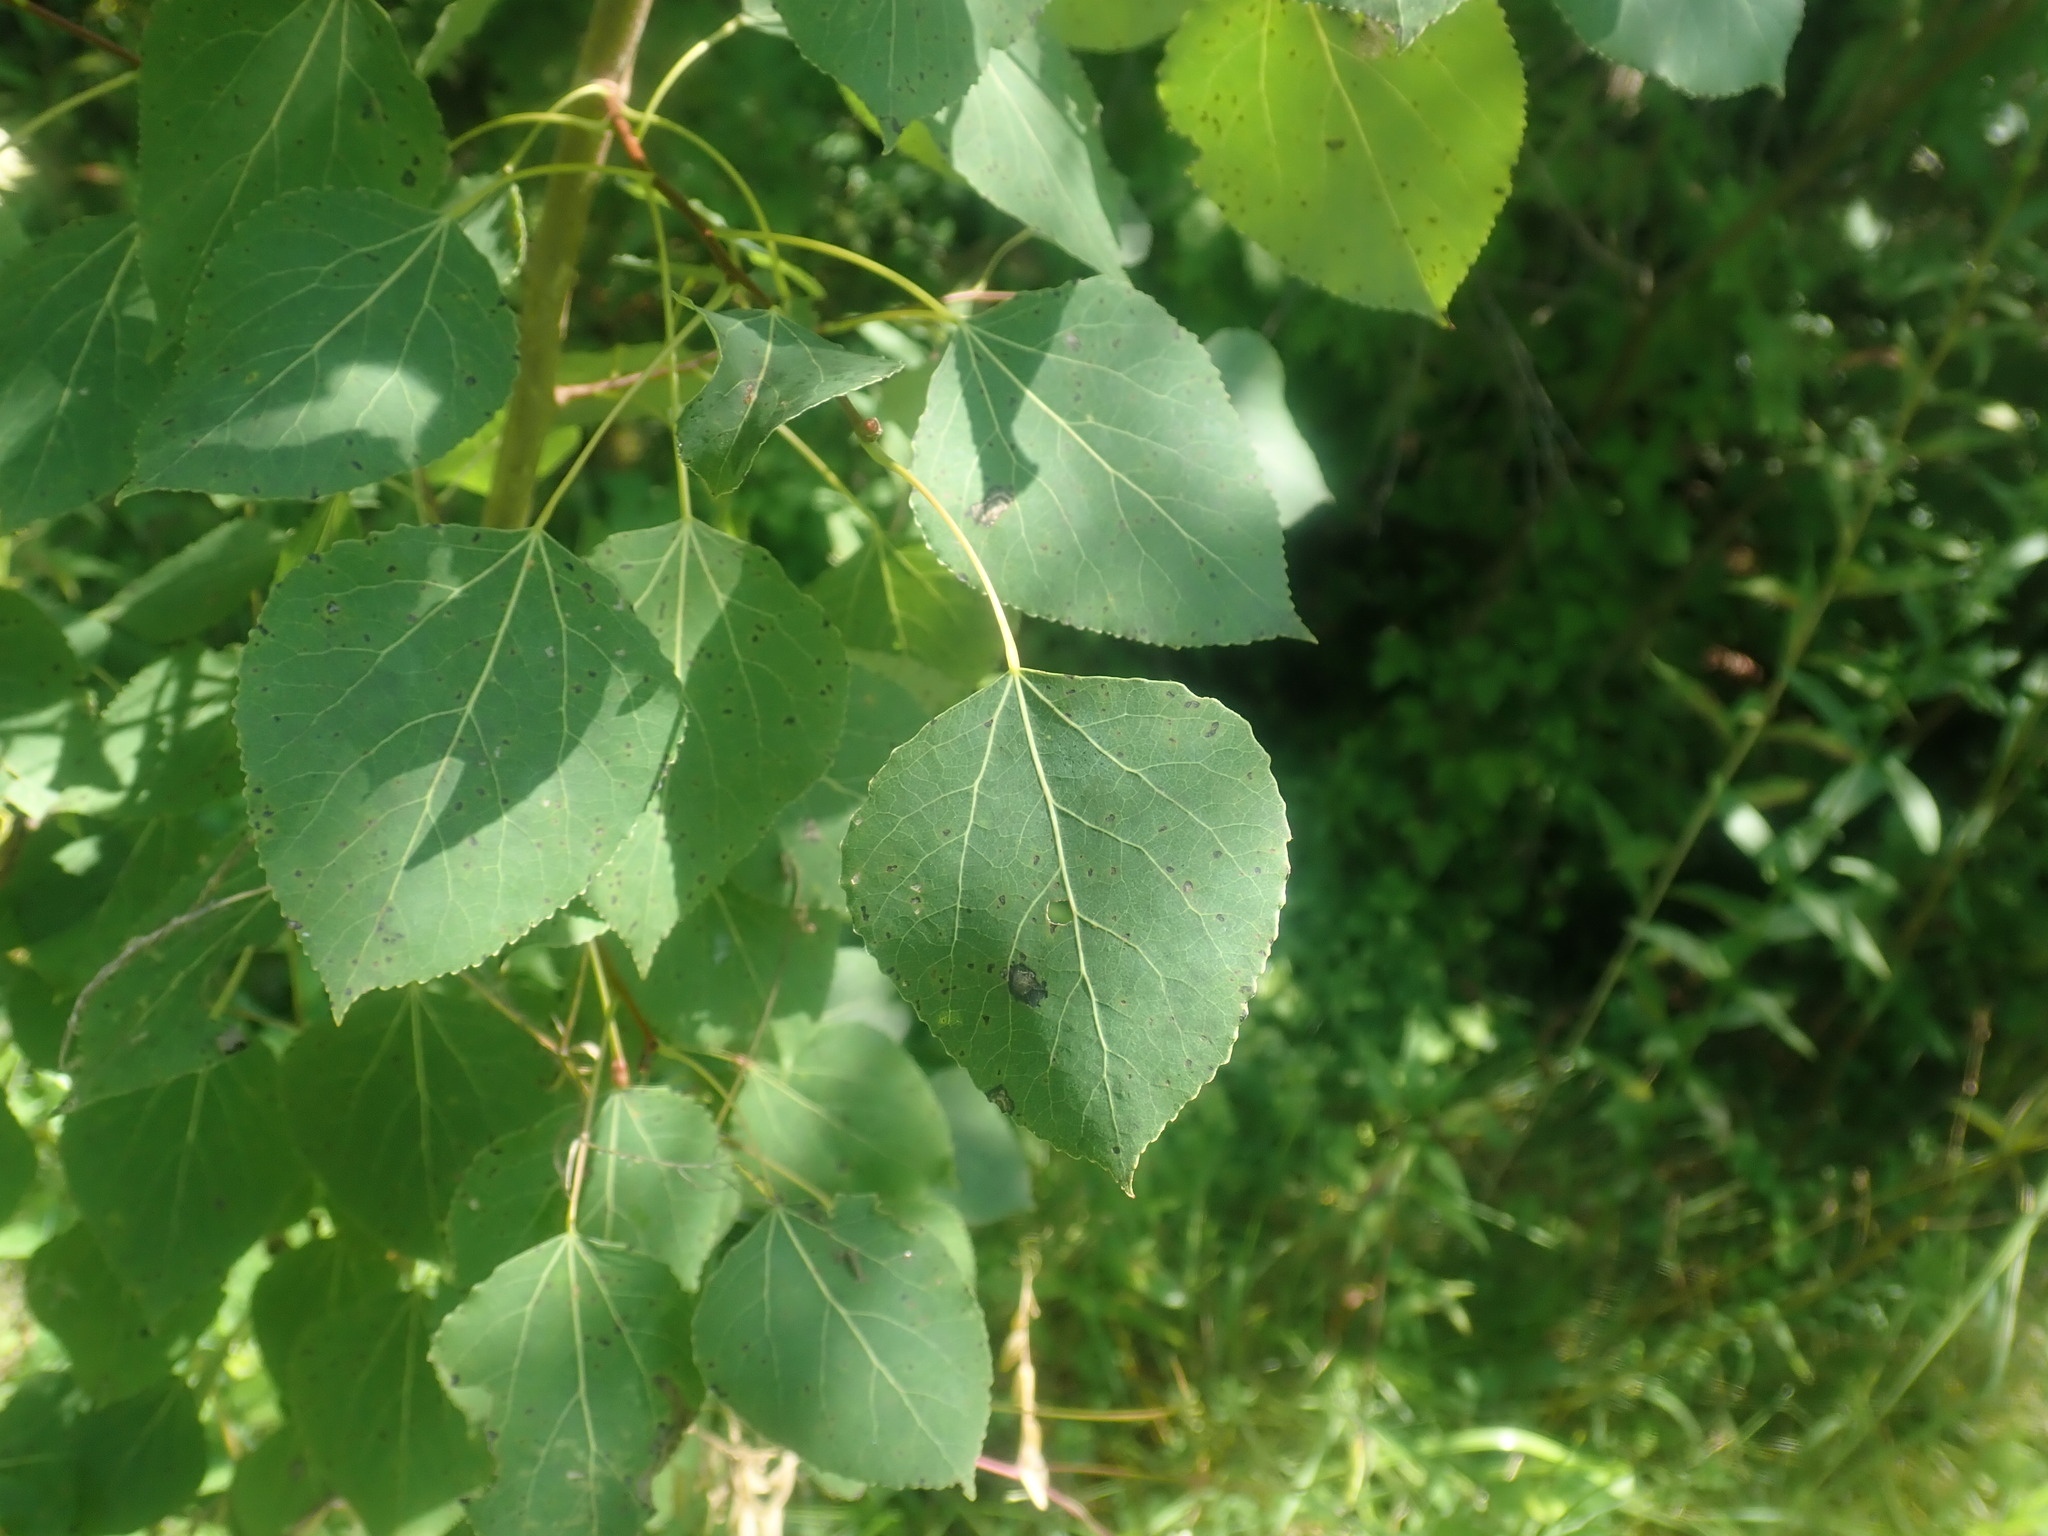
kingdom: Plantae
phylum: Tracheophyta
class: Magnoliopsida
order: Malpighiales
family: Salicaceae
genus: Populus
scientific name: Populus tremuloides
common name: Quaking aspen
